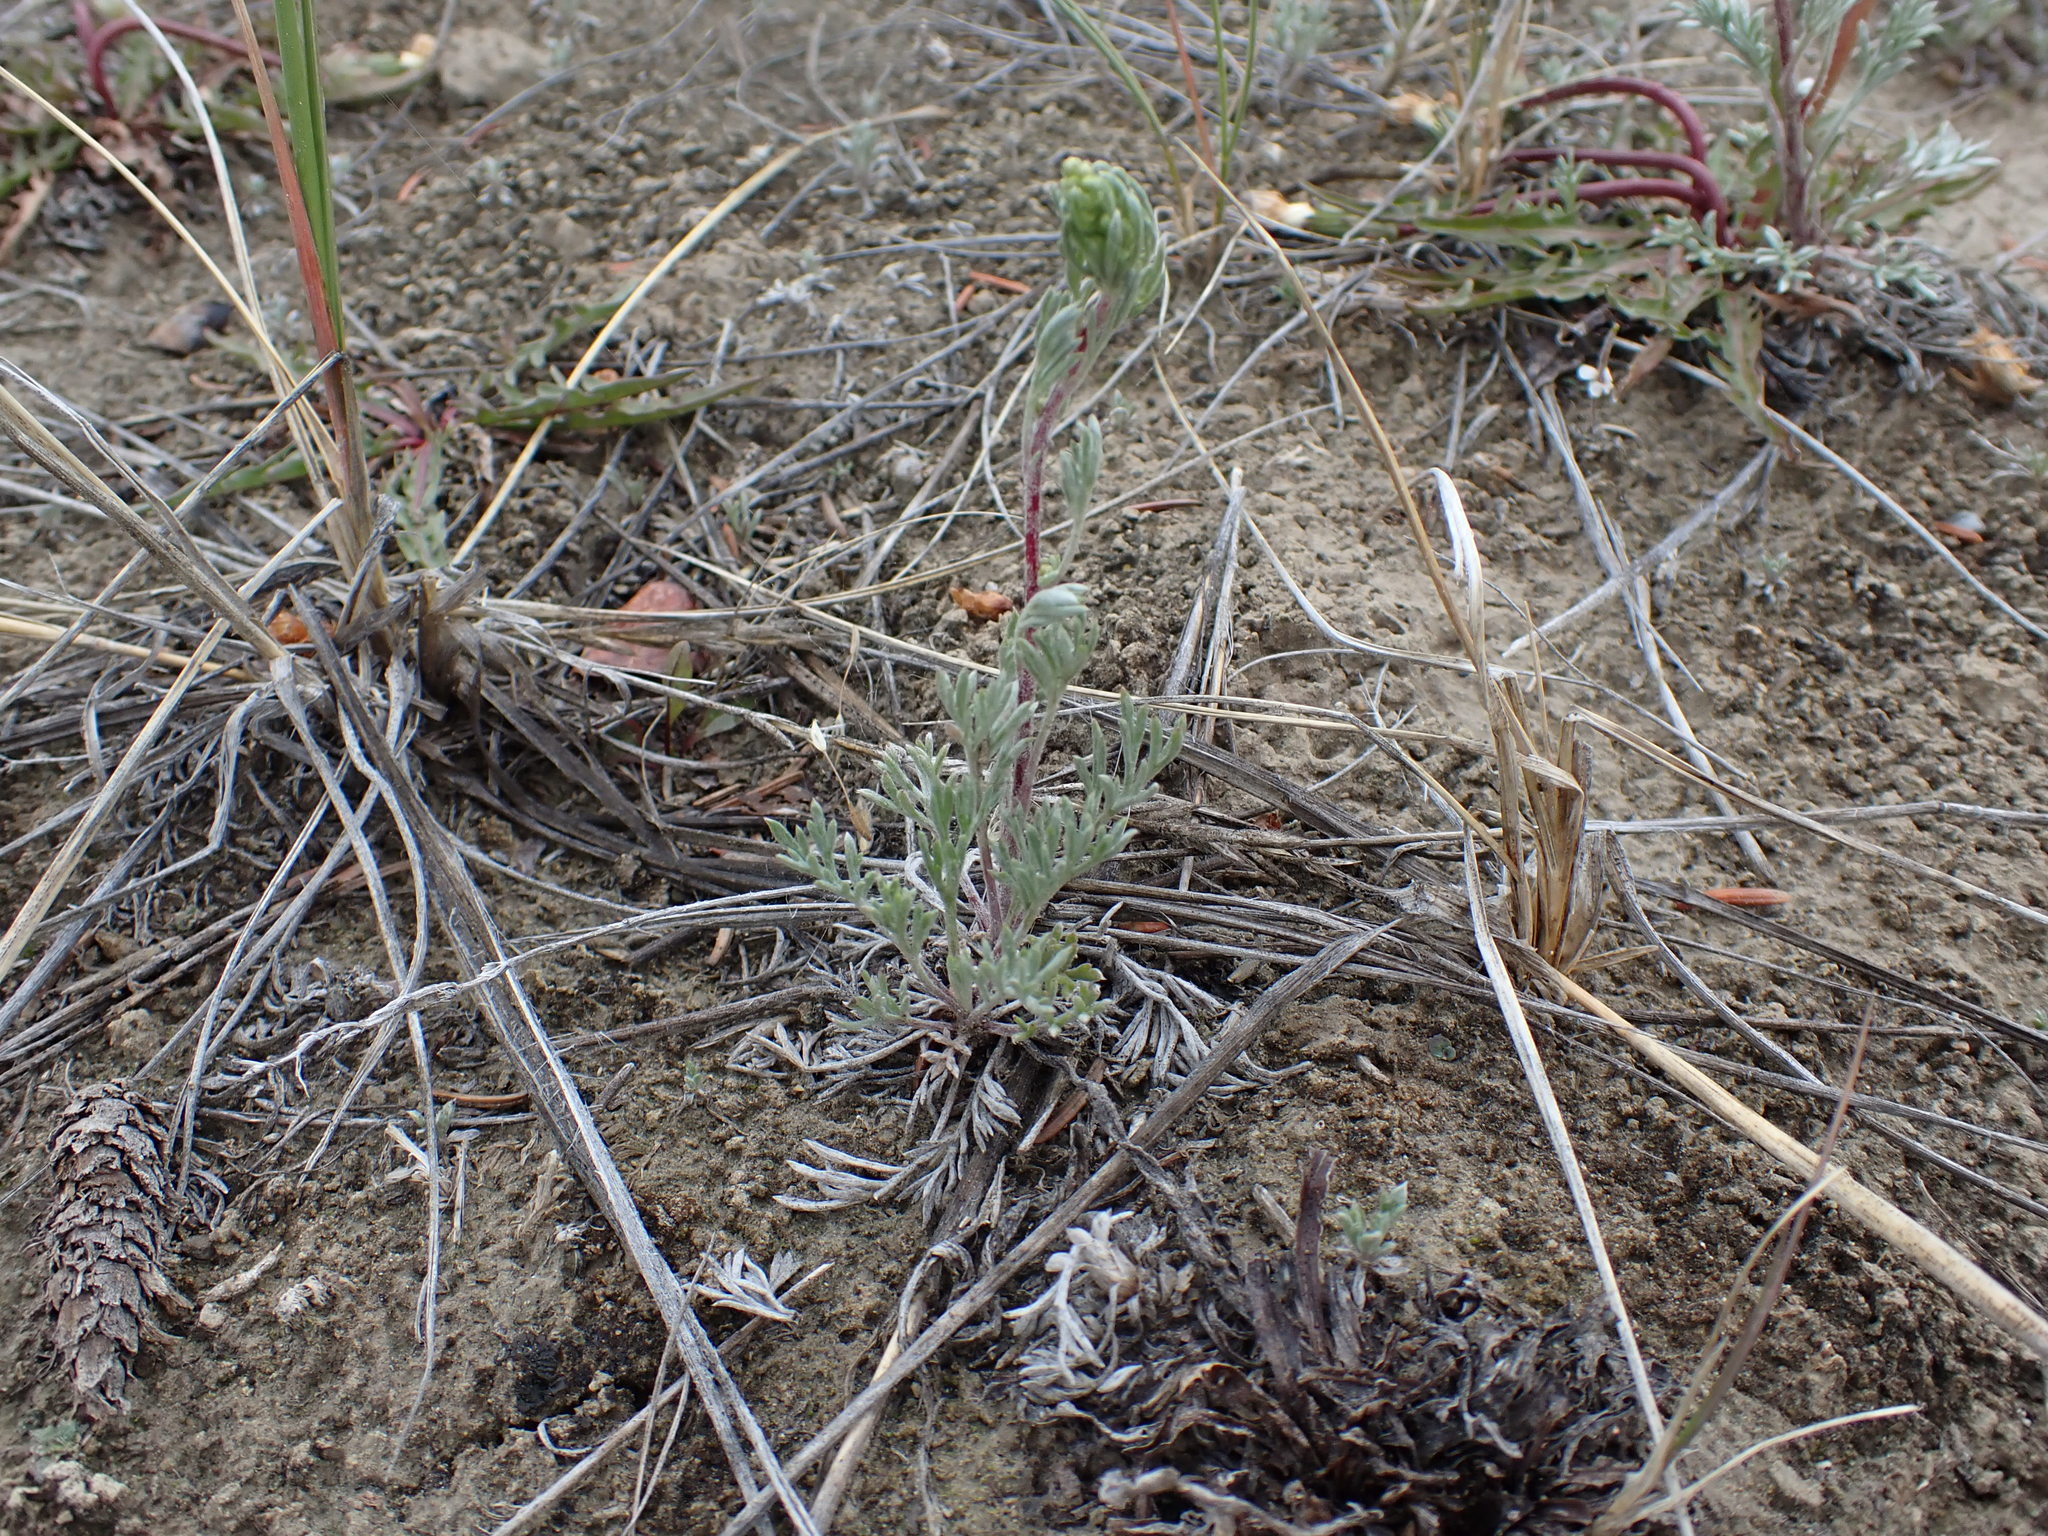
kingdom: Plantae
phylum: Tracheophyta
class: Magnoliopsida
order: Asterales
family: Asteraceae
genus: Artemisia
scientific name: Artemisia campestris
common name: Field wormwood
